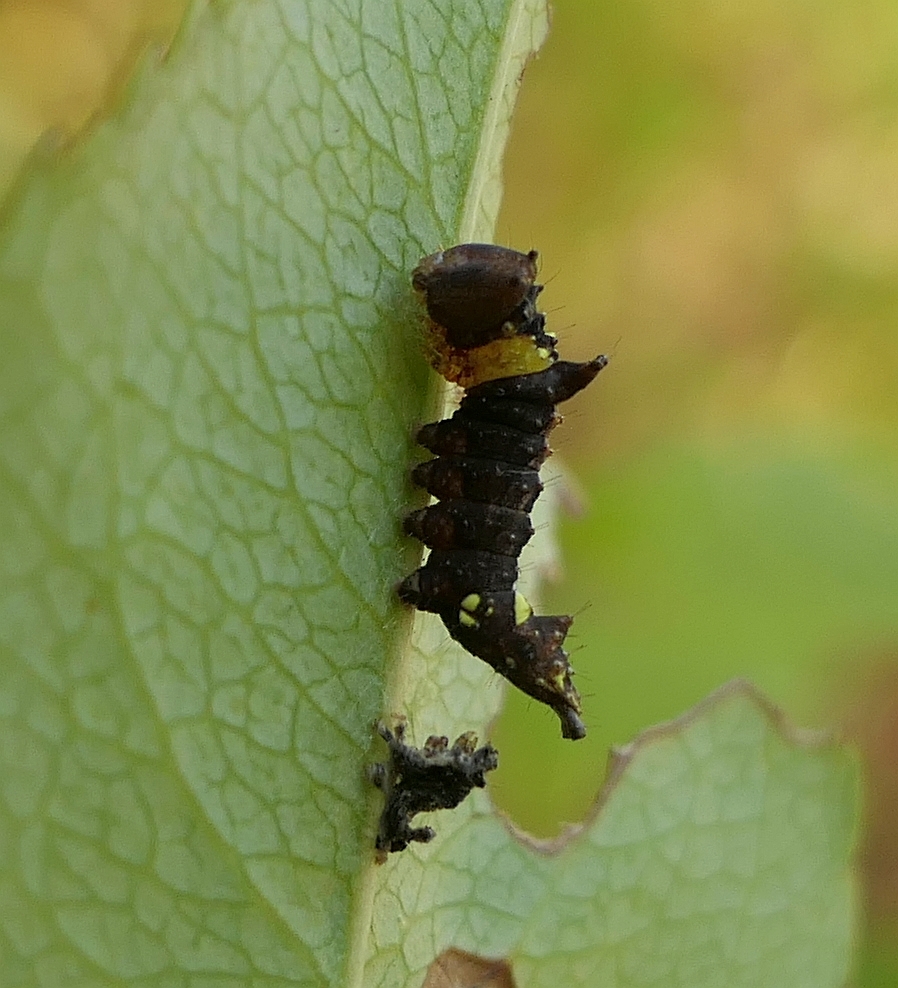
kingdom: Animalia
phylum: Arthropoda
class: Insecta
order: Lepidoptera
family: Notodontidae
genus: Schizura
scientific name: Schizura
